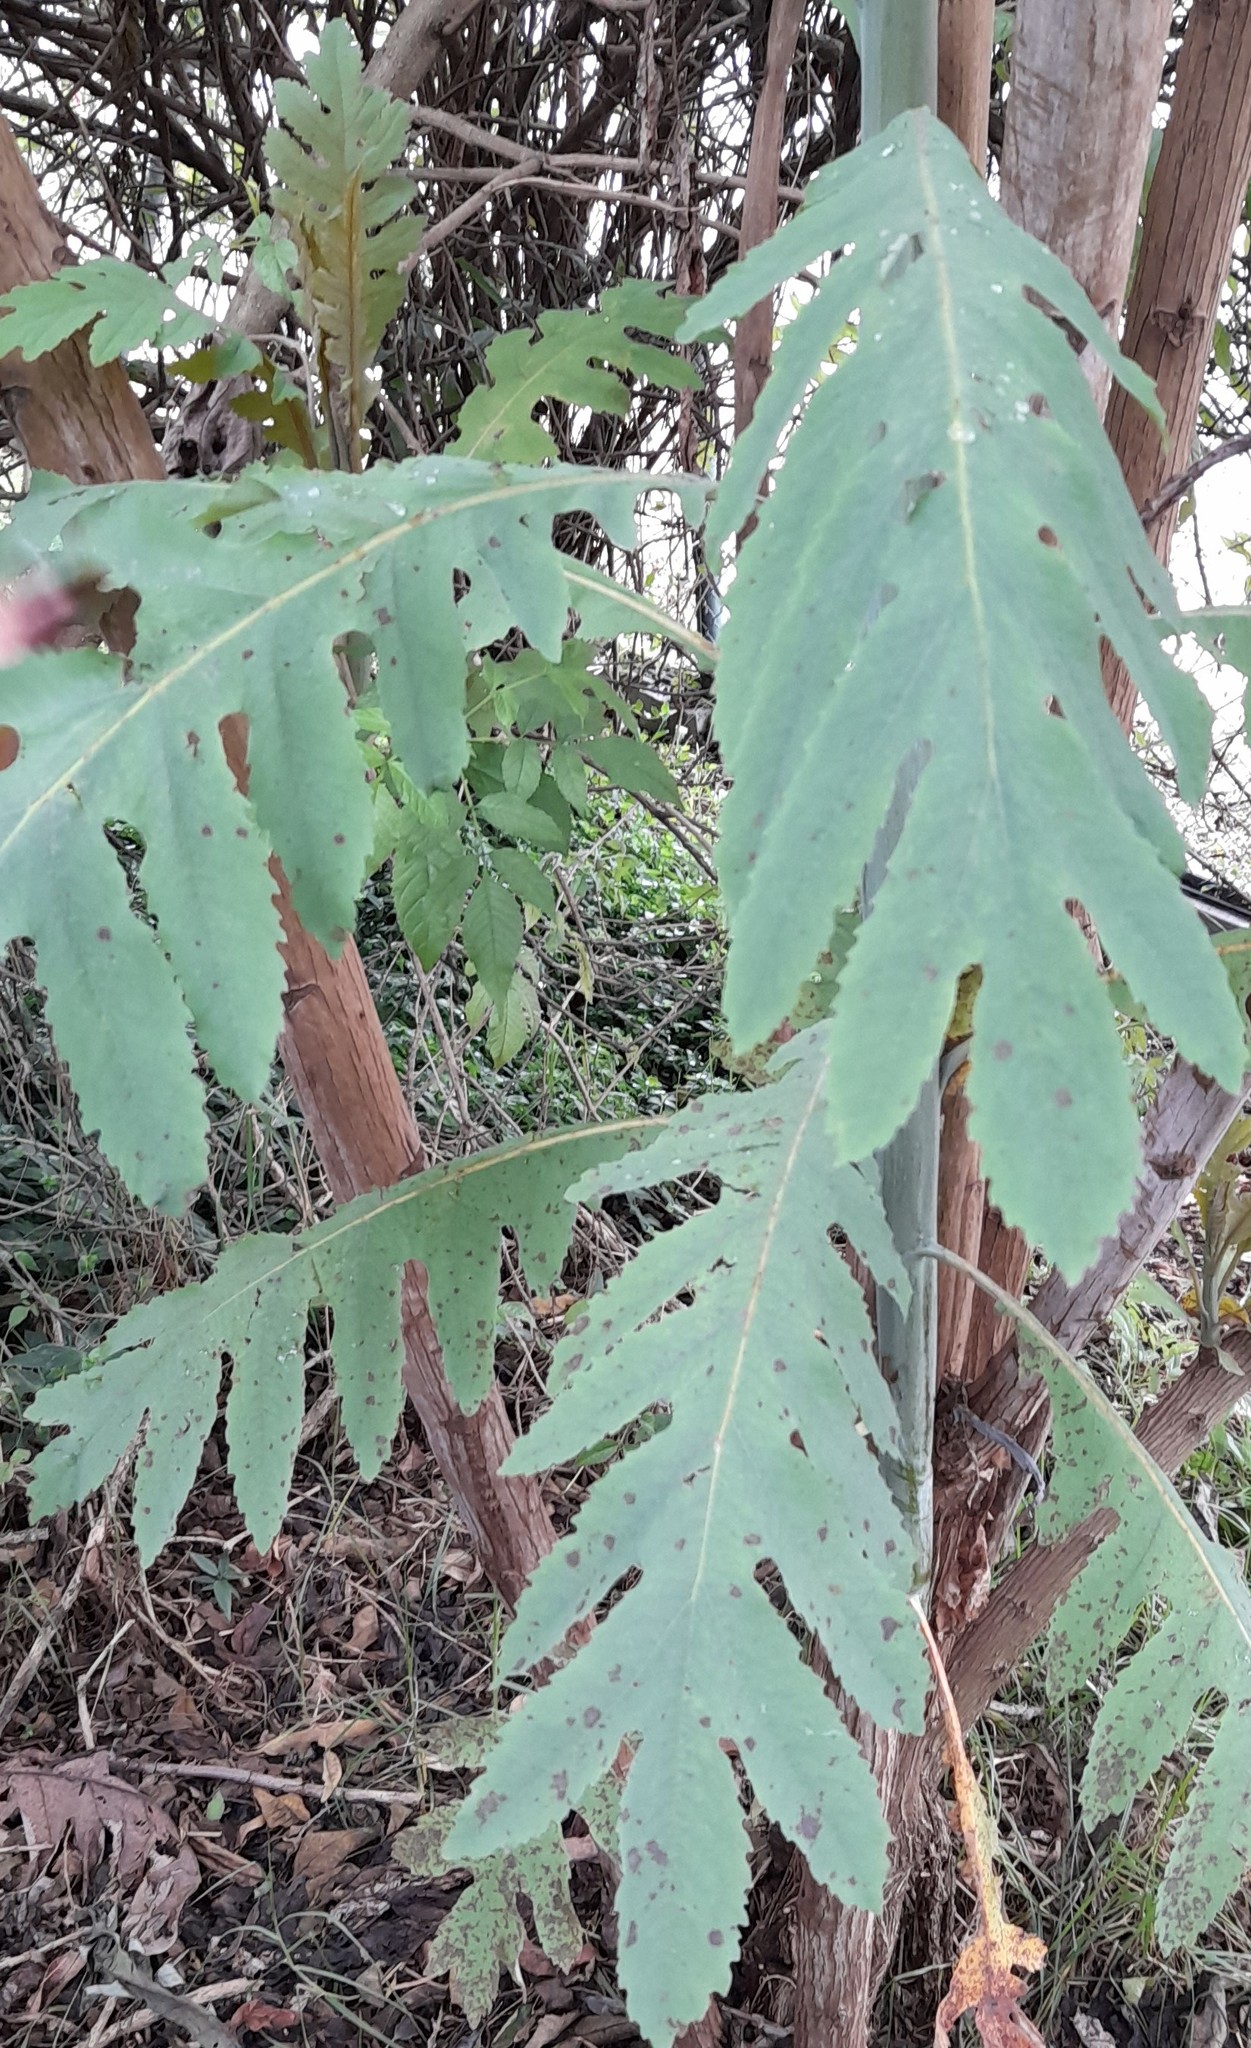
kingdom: Plantae
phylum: Tracheophyta
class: Magnoliopsida
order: Ranunculales
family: Papaveraceae
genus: Bocconia
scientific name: Bocconia frutescens
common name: Tree poppy
